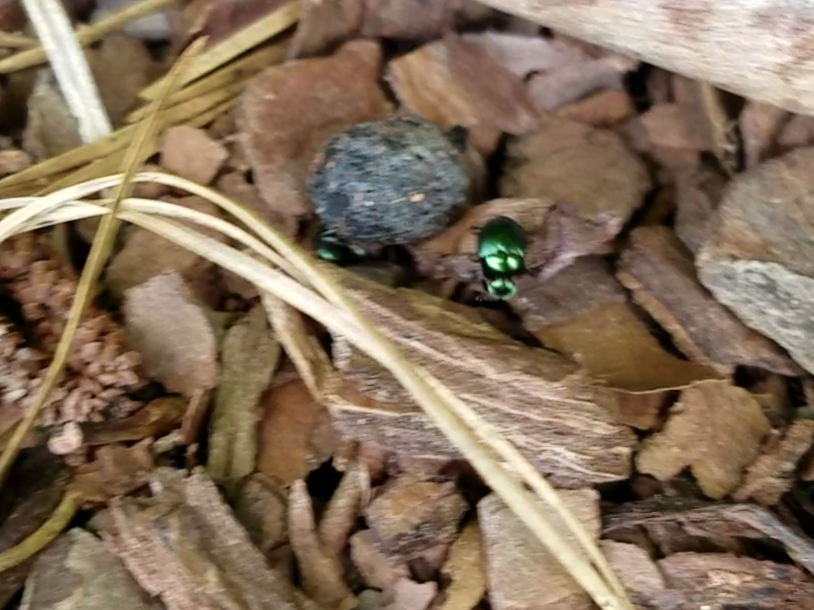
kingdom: Animalia
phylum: Arthropoda
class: Insecta
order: Coleoptera
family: Scarabaeidae
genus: Canthon
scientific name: Canthon viridis
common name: Tumblebug
